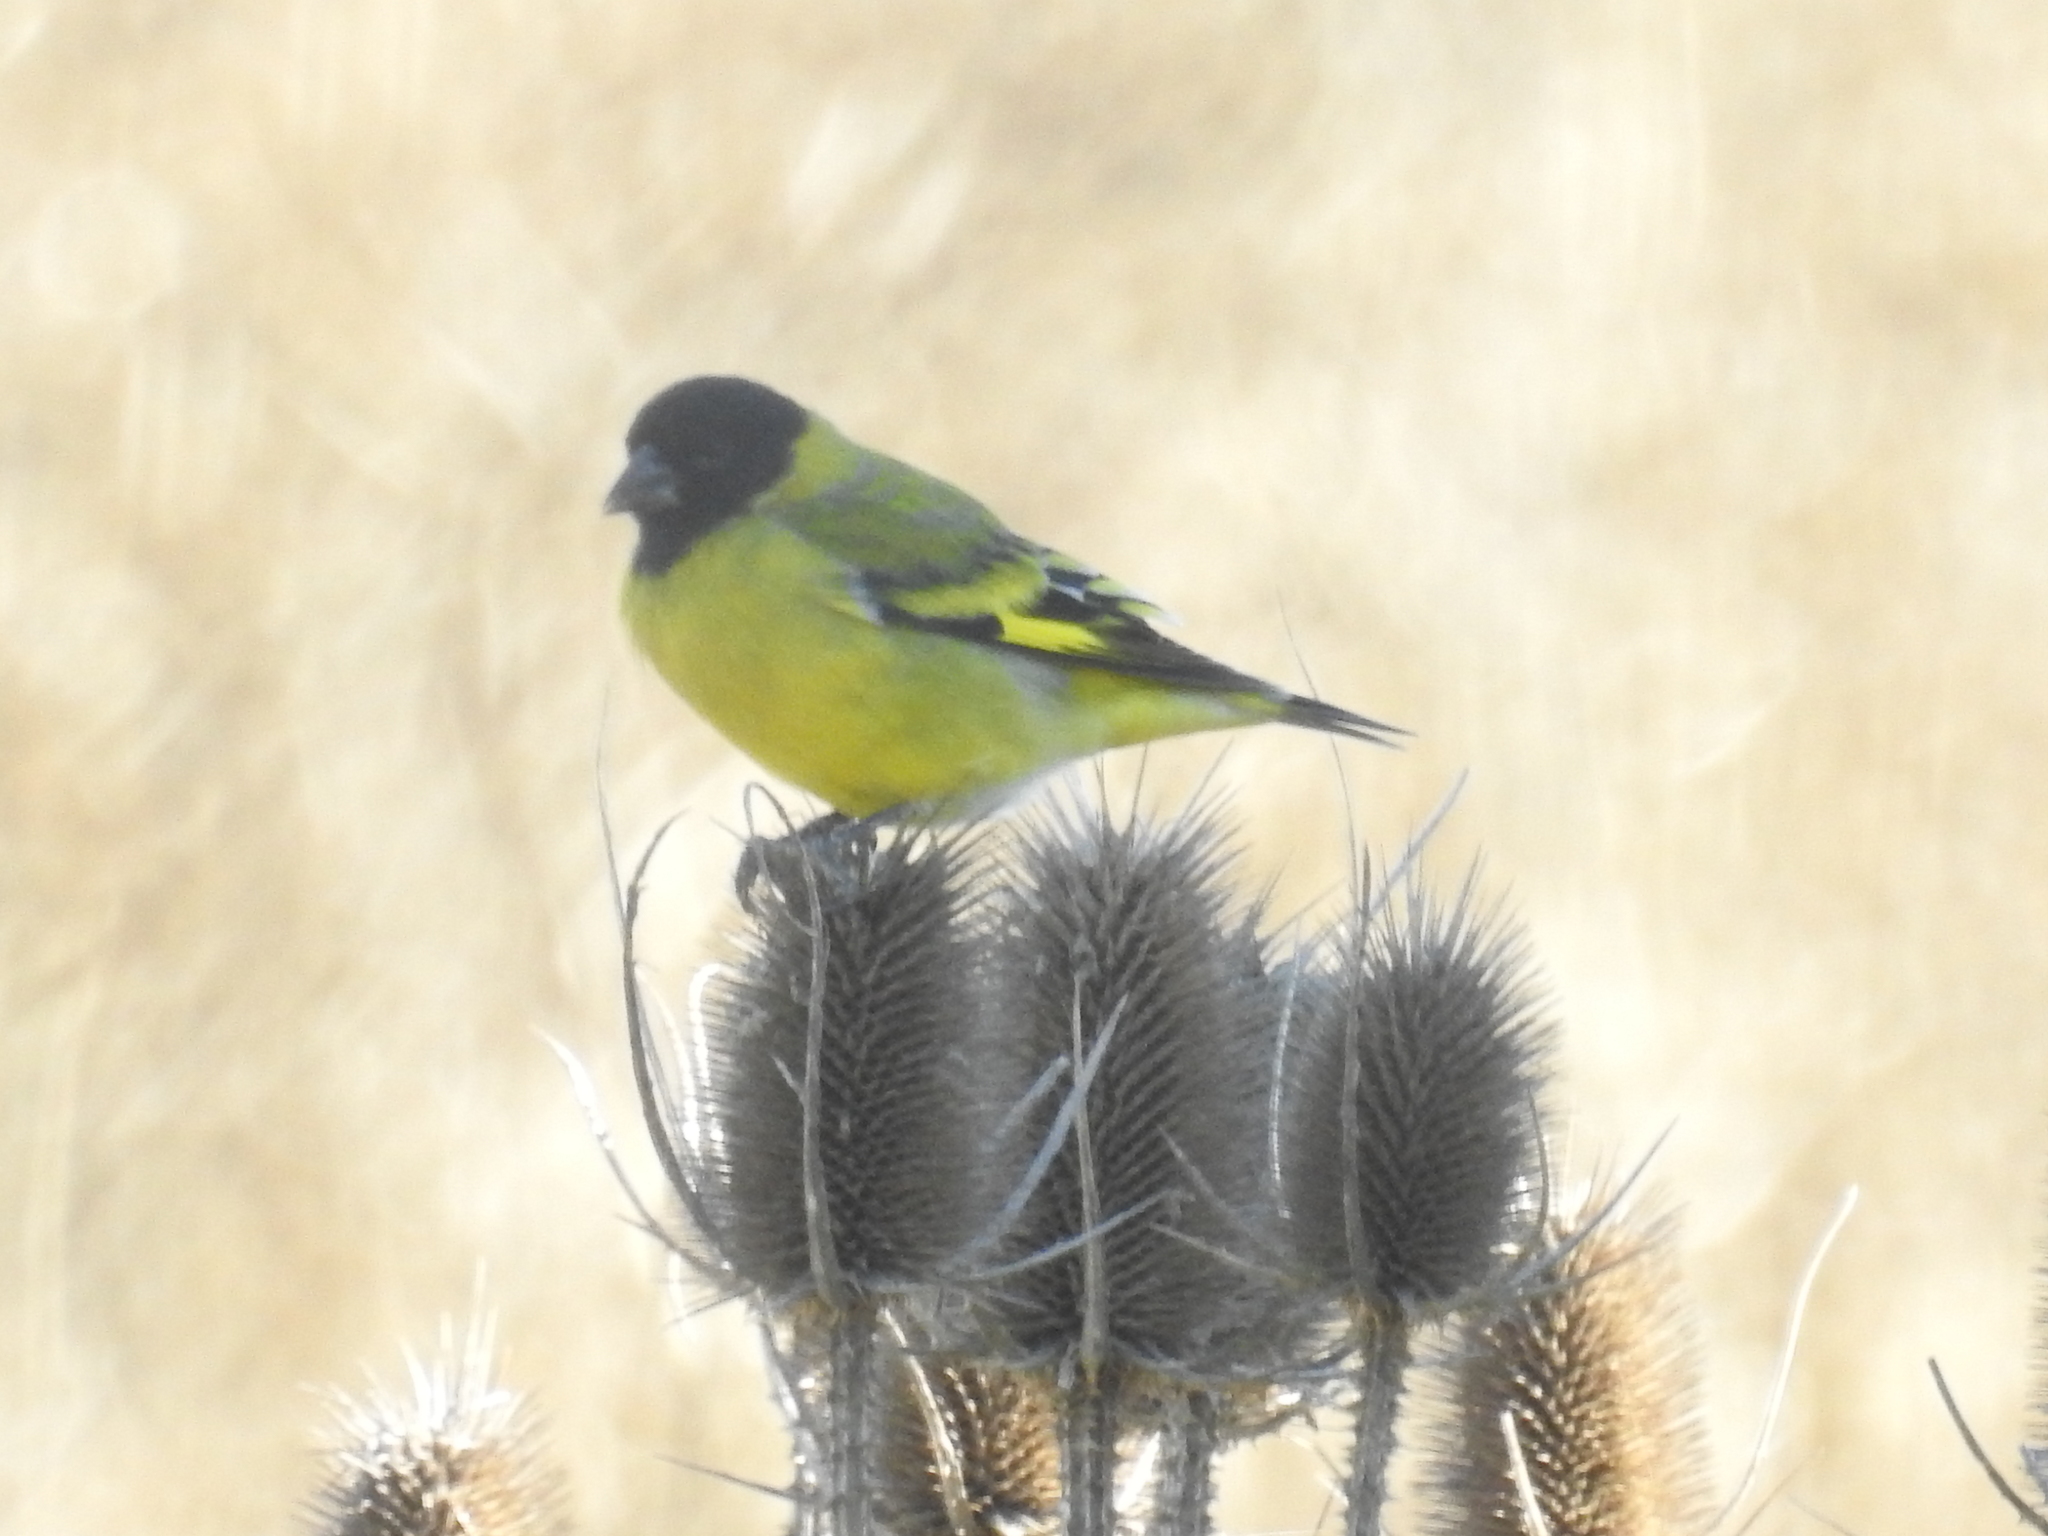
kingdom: Animalia
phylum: Chordata
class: Aves
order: Passeriformes
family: Fringillidae
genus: Spinus
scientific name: Spinus magellanicus
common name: Hooded siskin
